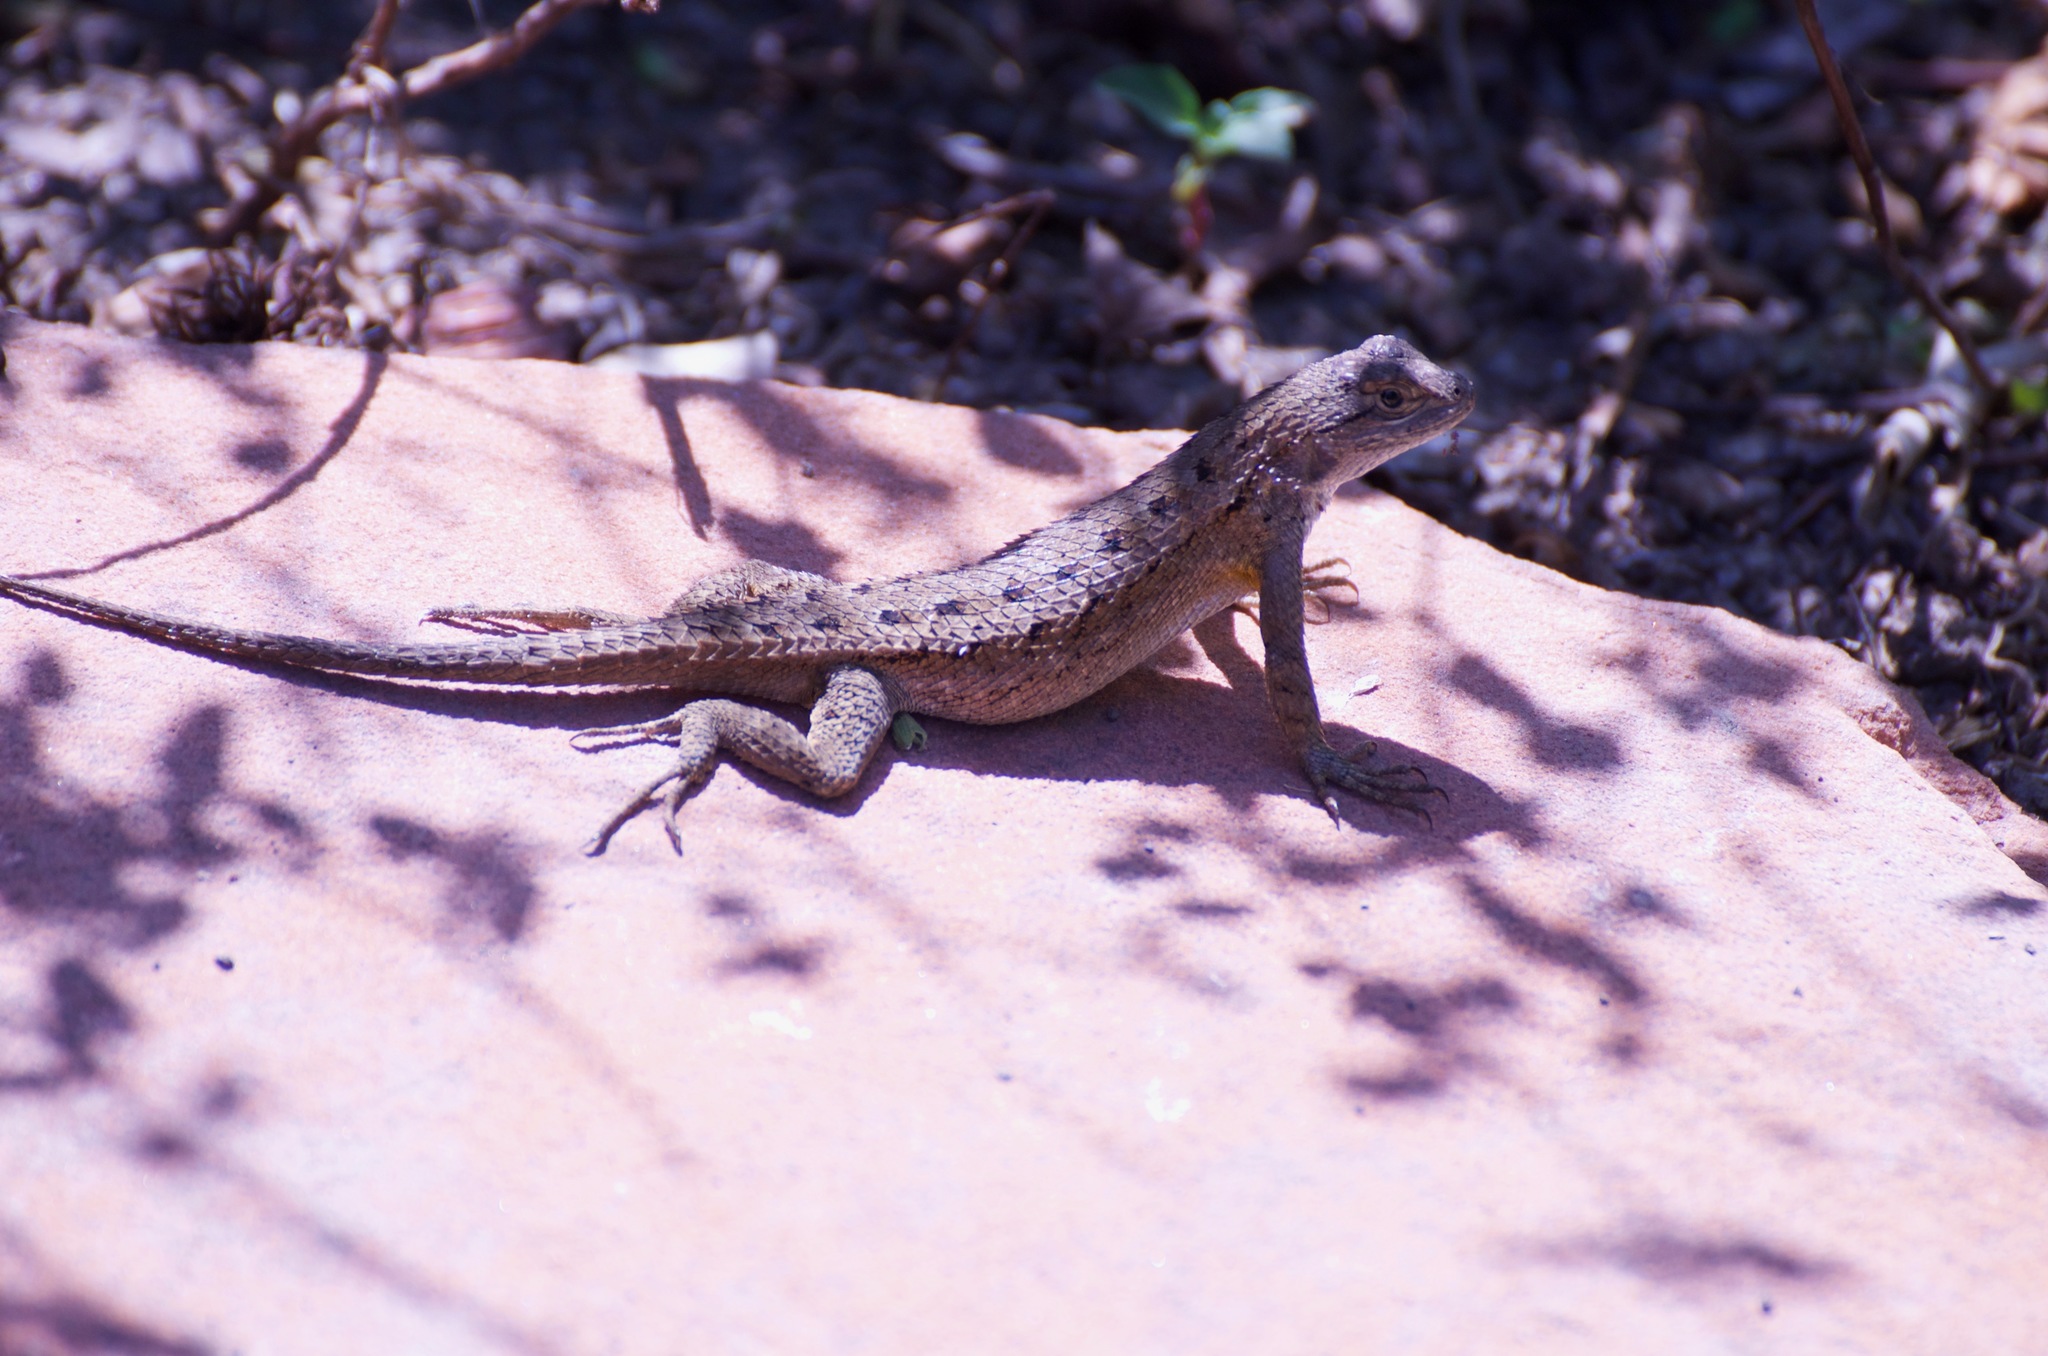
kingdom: Animalia
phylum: Chordata
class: Squamata
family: Phrynosomatidae
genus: Sceloporus
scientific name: Sceloporus occidentalis
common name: Western fence lizard
